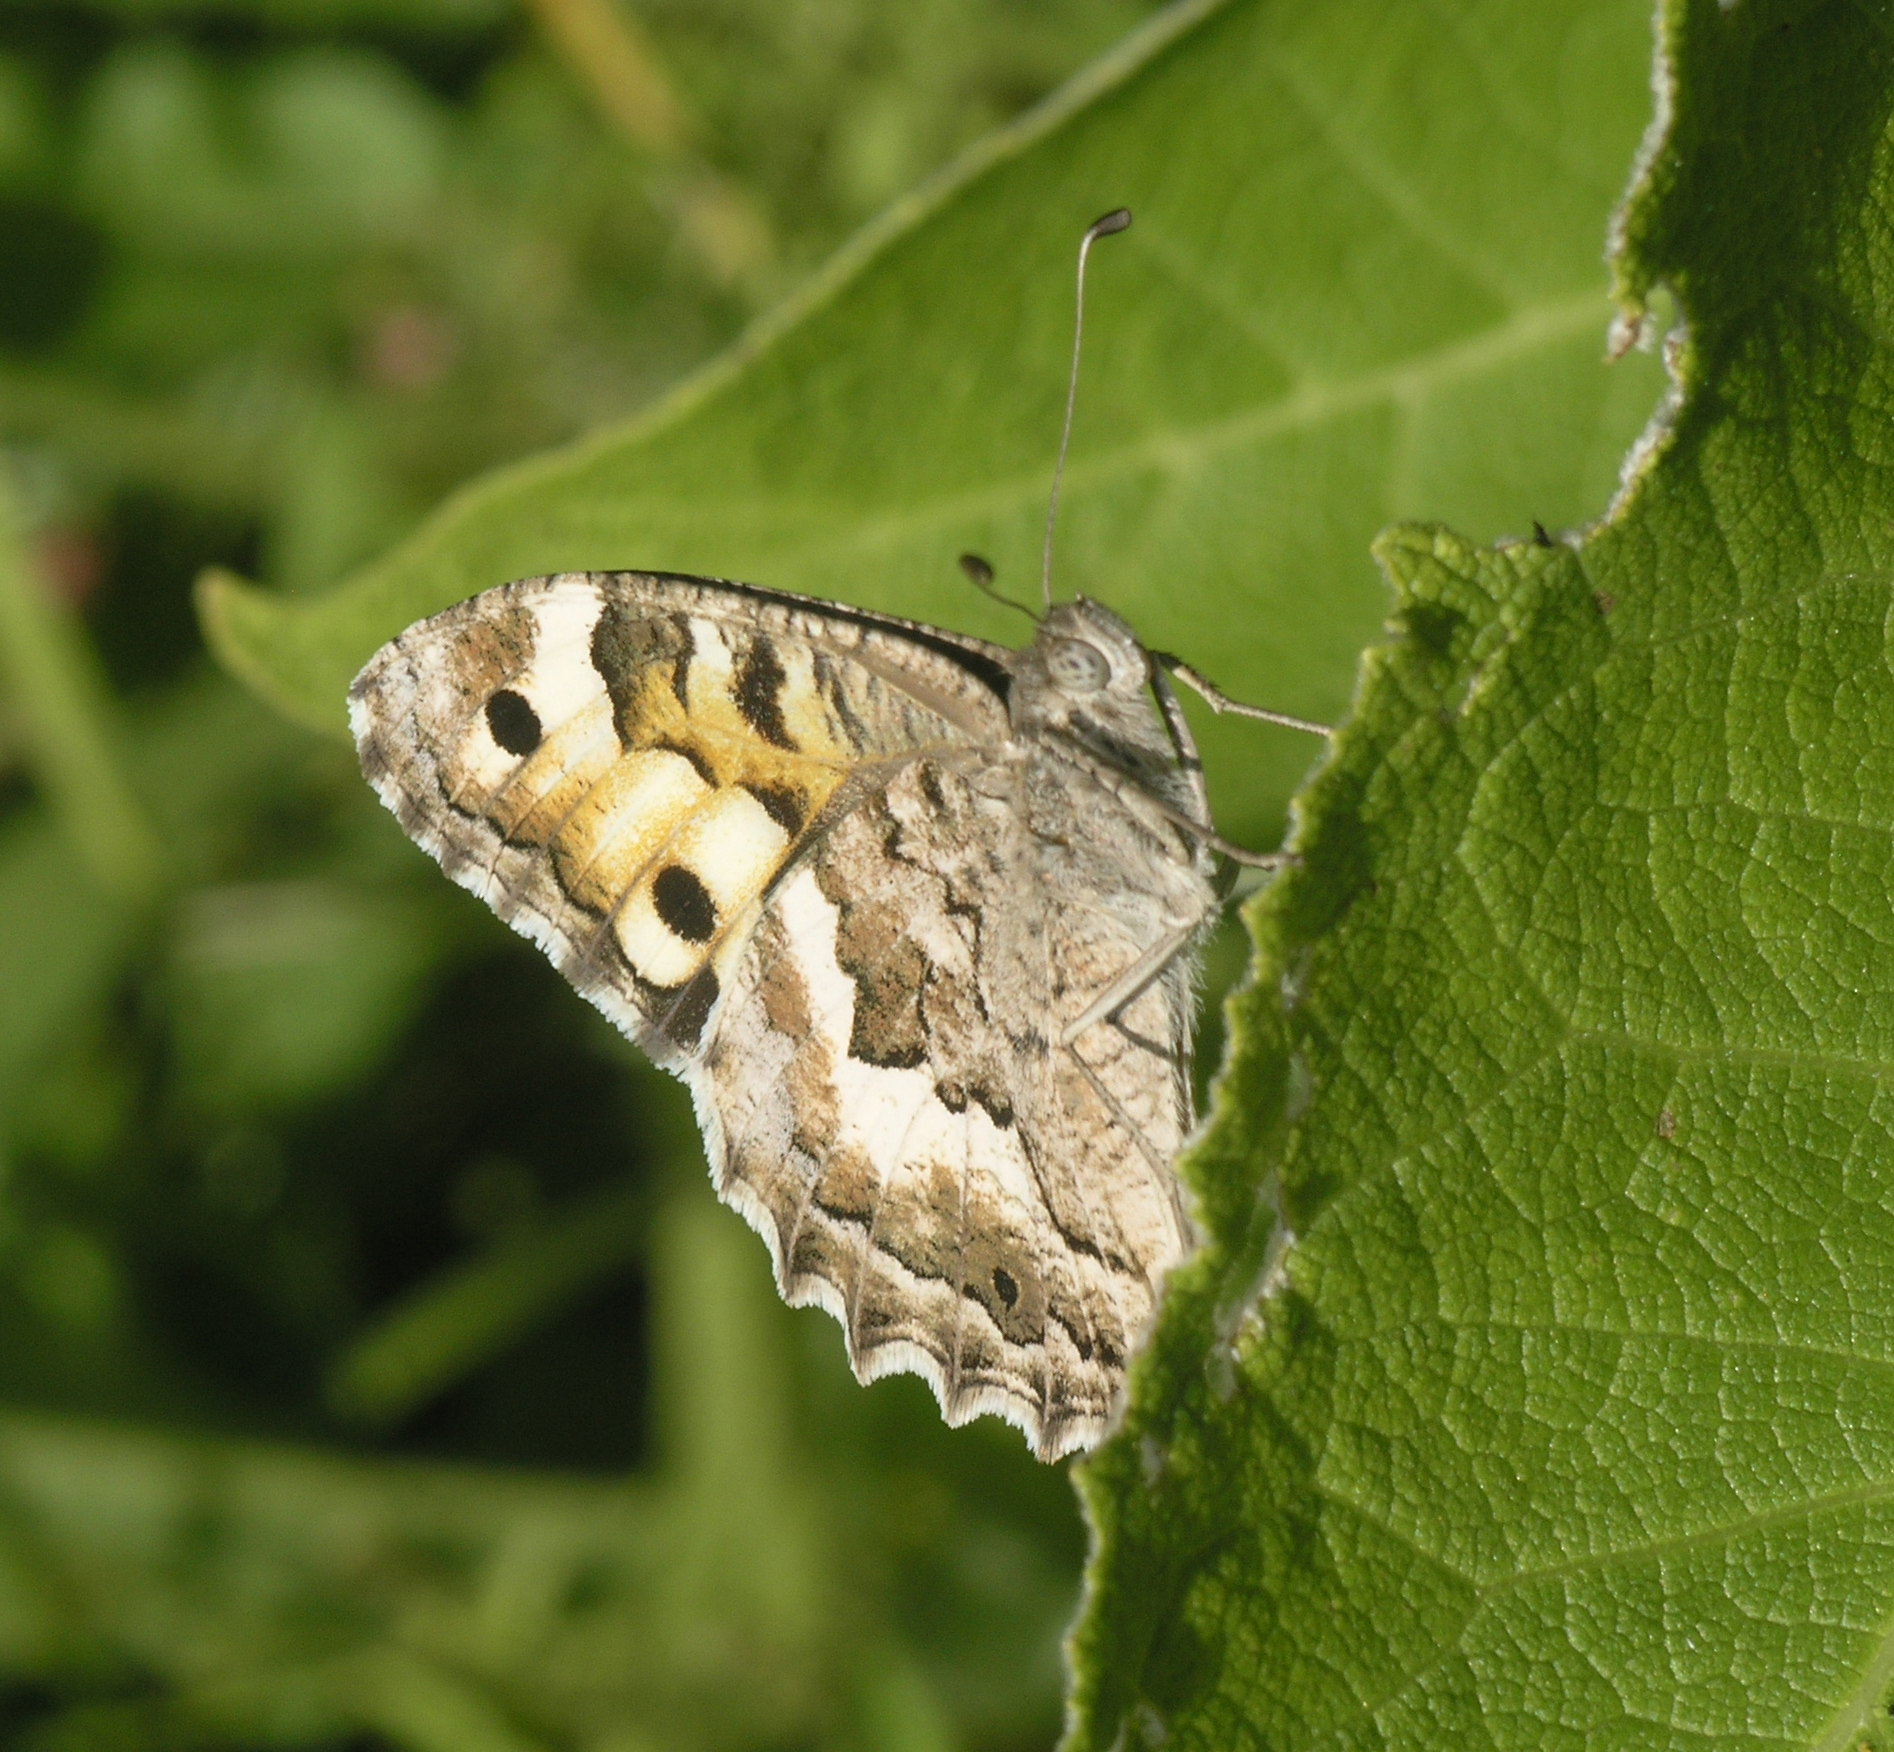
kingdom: Animalia
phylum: Arthropoda
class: Insecta
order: Lepidoptera
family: Nymphalidae
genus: Satyrus
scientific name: Satyrus Chazara enervata
